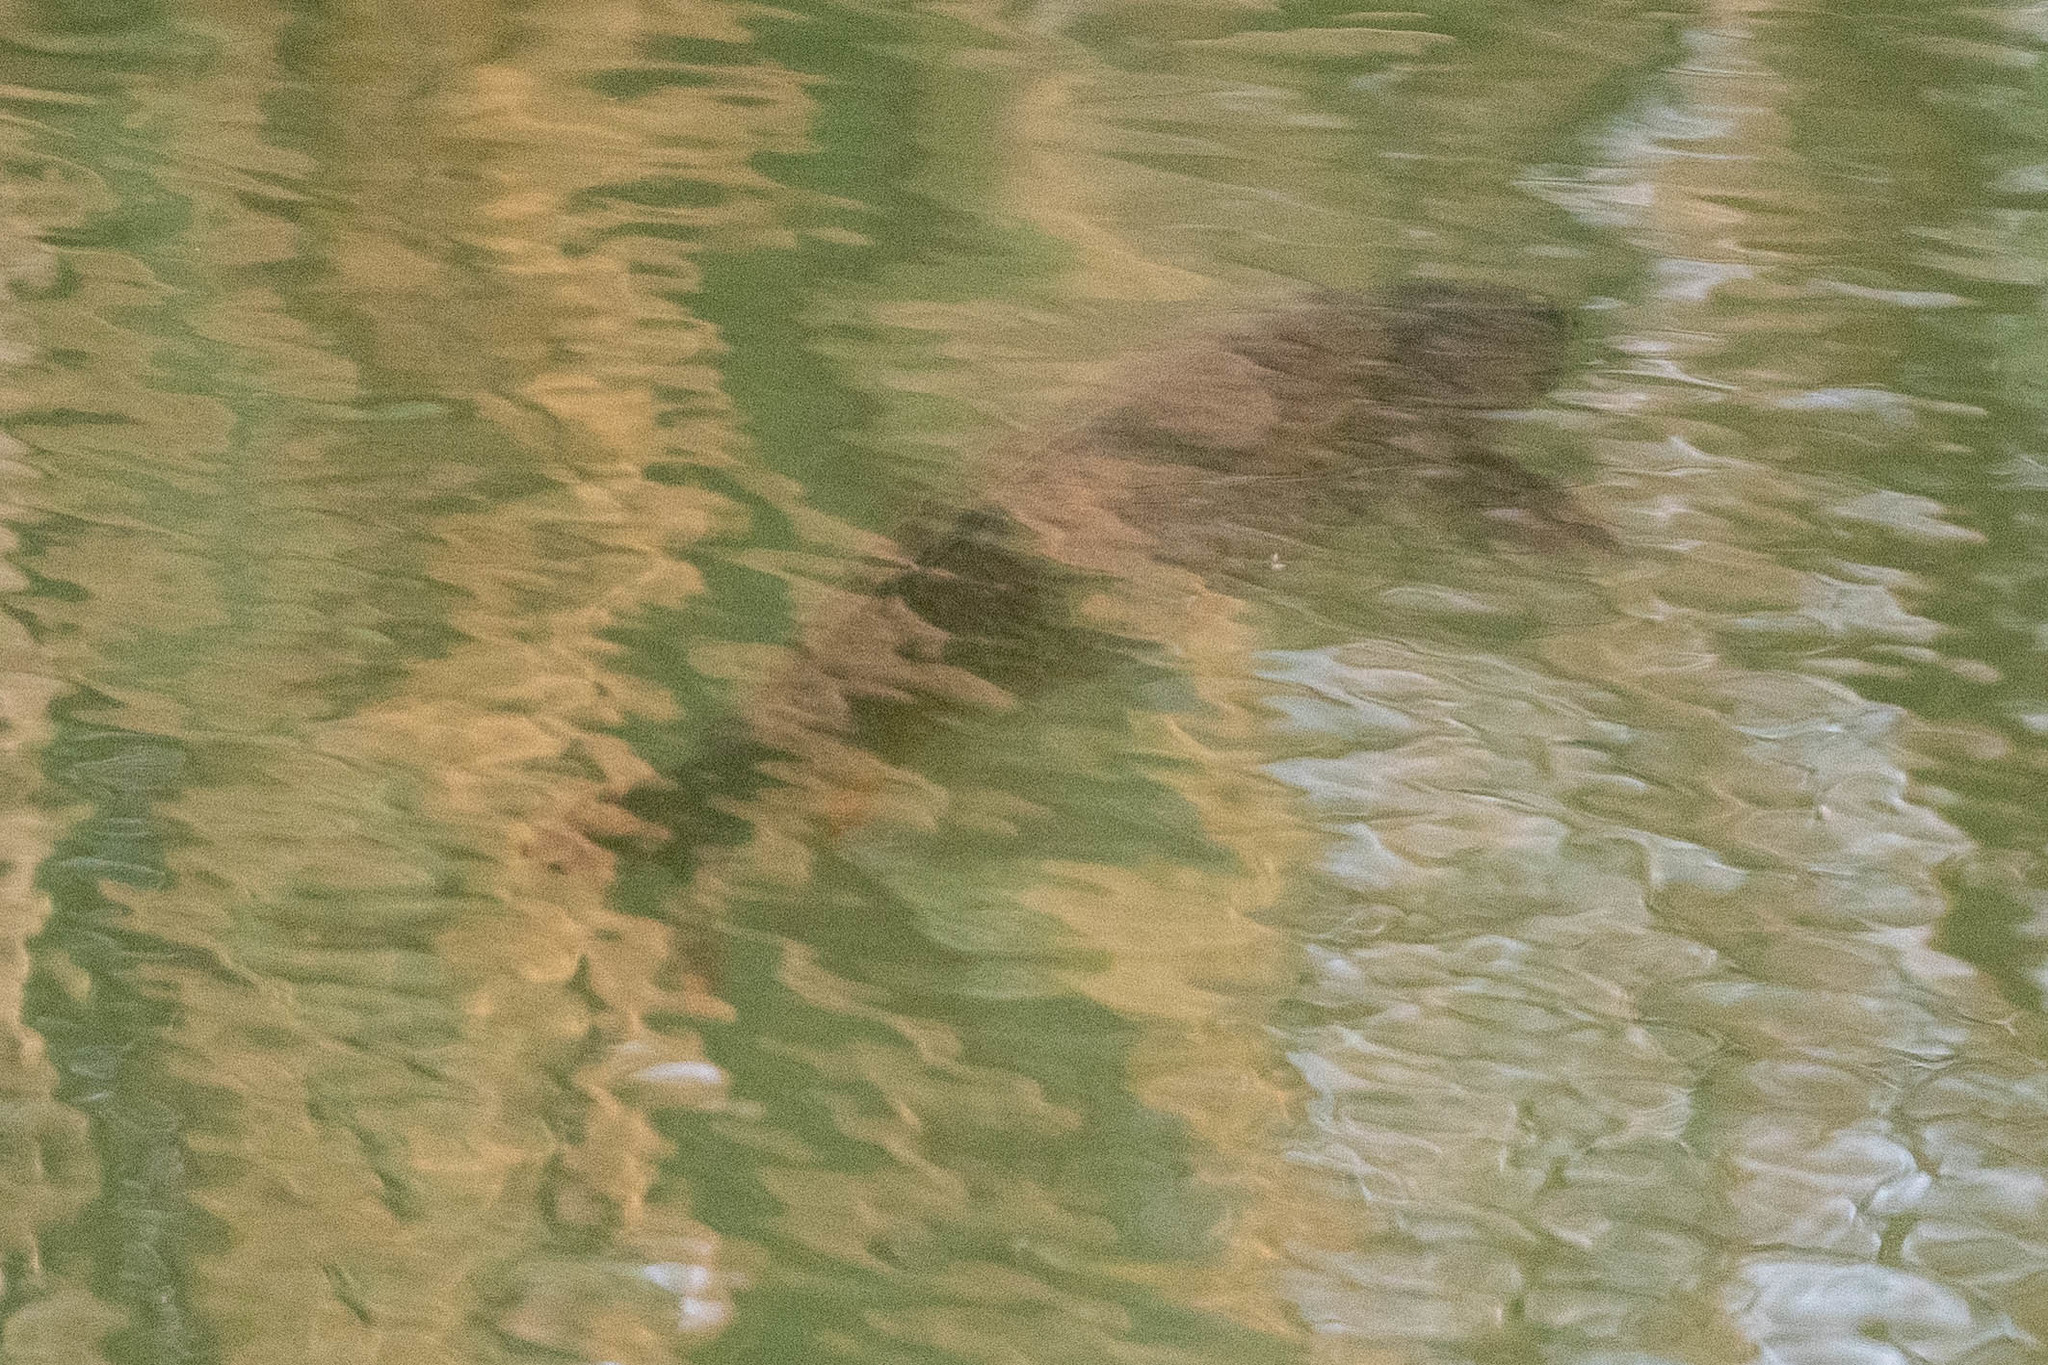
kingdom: Animalia
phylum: Chordata
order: Cypriniformes
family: Cyprinidae
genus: Cyprinus
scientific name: Cyprinus carpio
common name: Common carp
